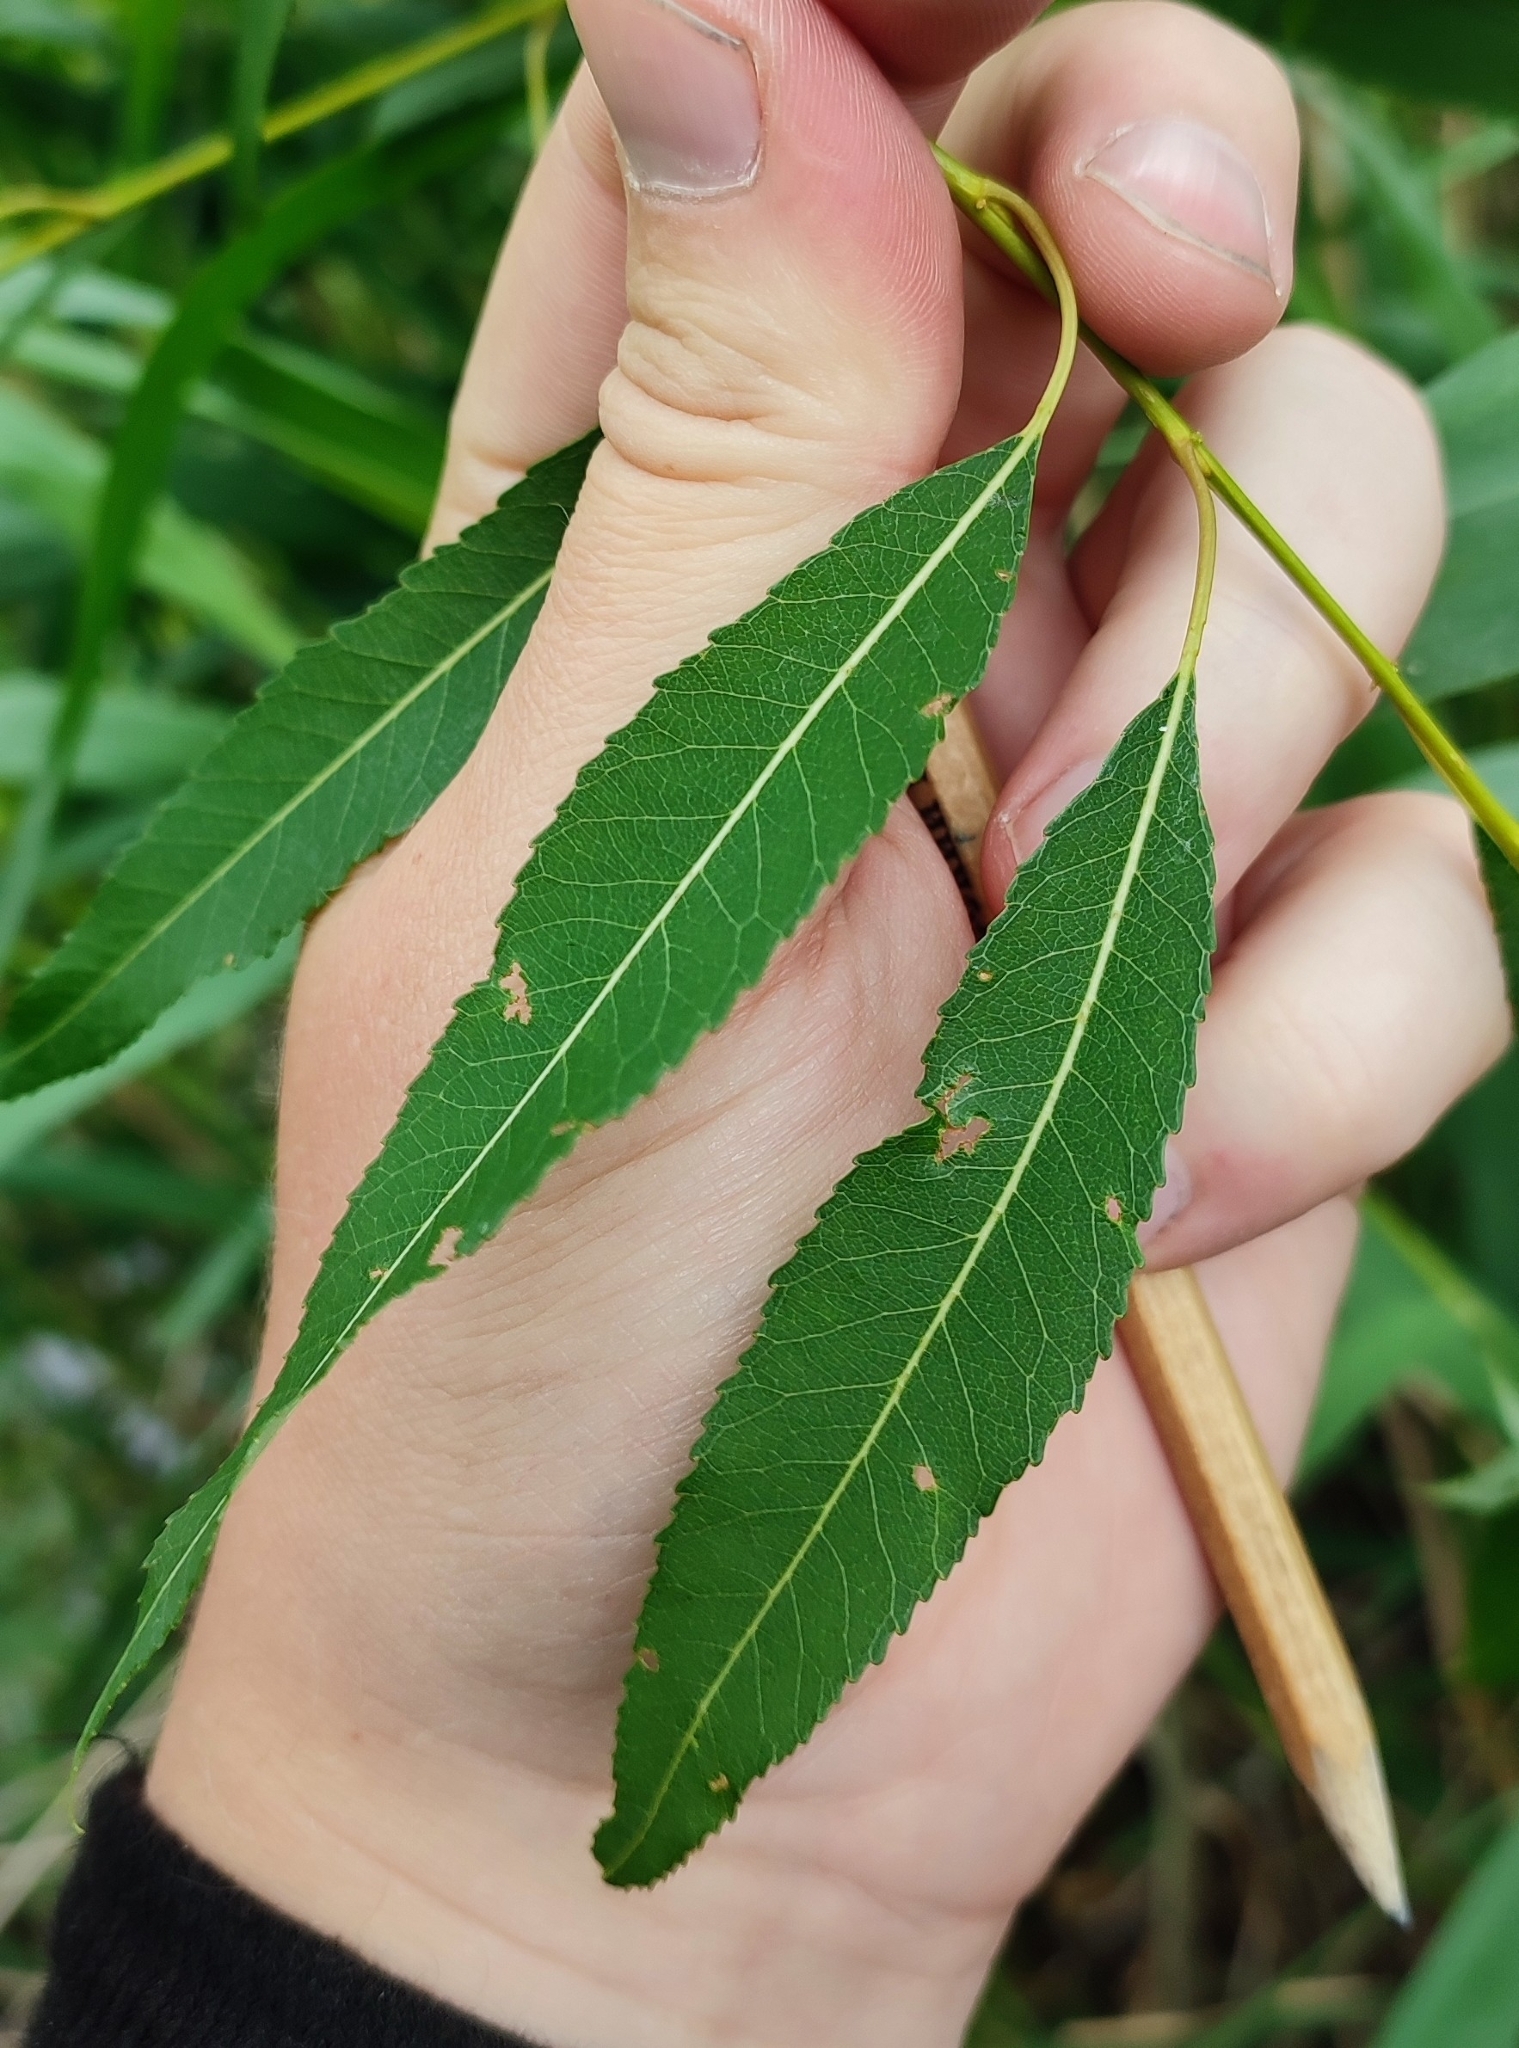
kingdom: Plantae
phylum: Tracheophyta
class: Magnoliopsida
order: Malpighiales
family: Salicaceae
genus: Salix
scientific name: Salix triandra
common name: Almond willow
